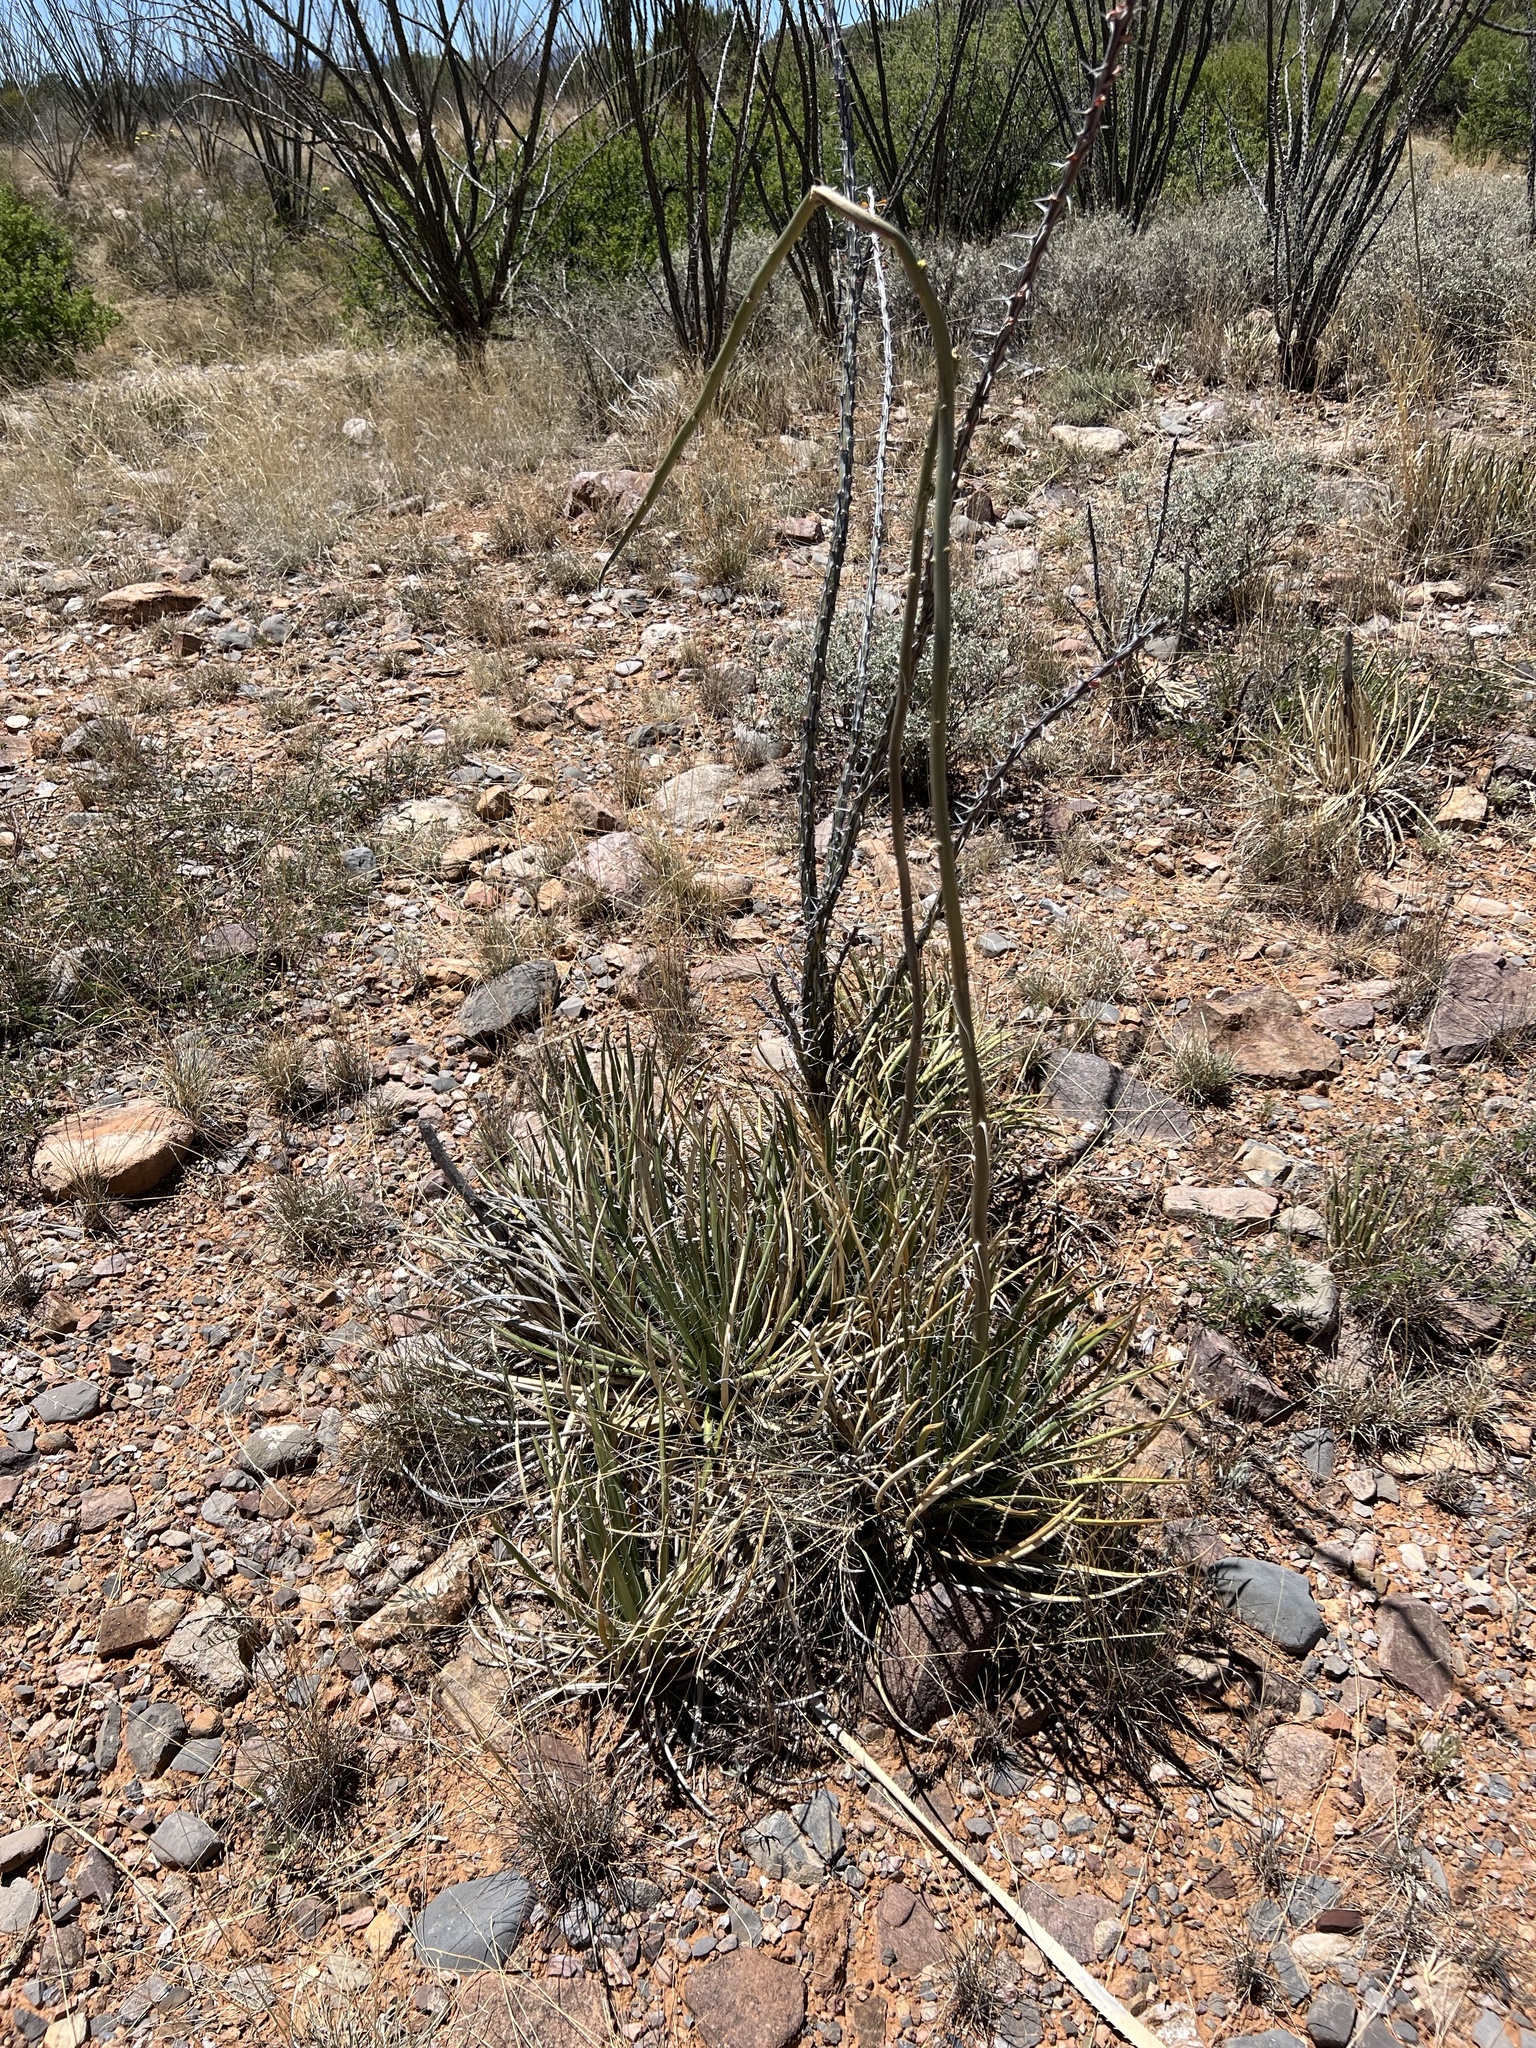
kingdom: Plantae
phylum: Tracheophyta
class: Liliopsida
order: Asparagales
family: Asparagaceae
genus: Agave
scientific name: Agave schottii
